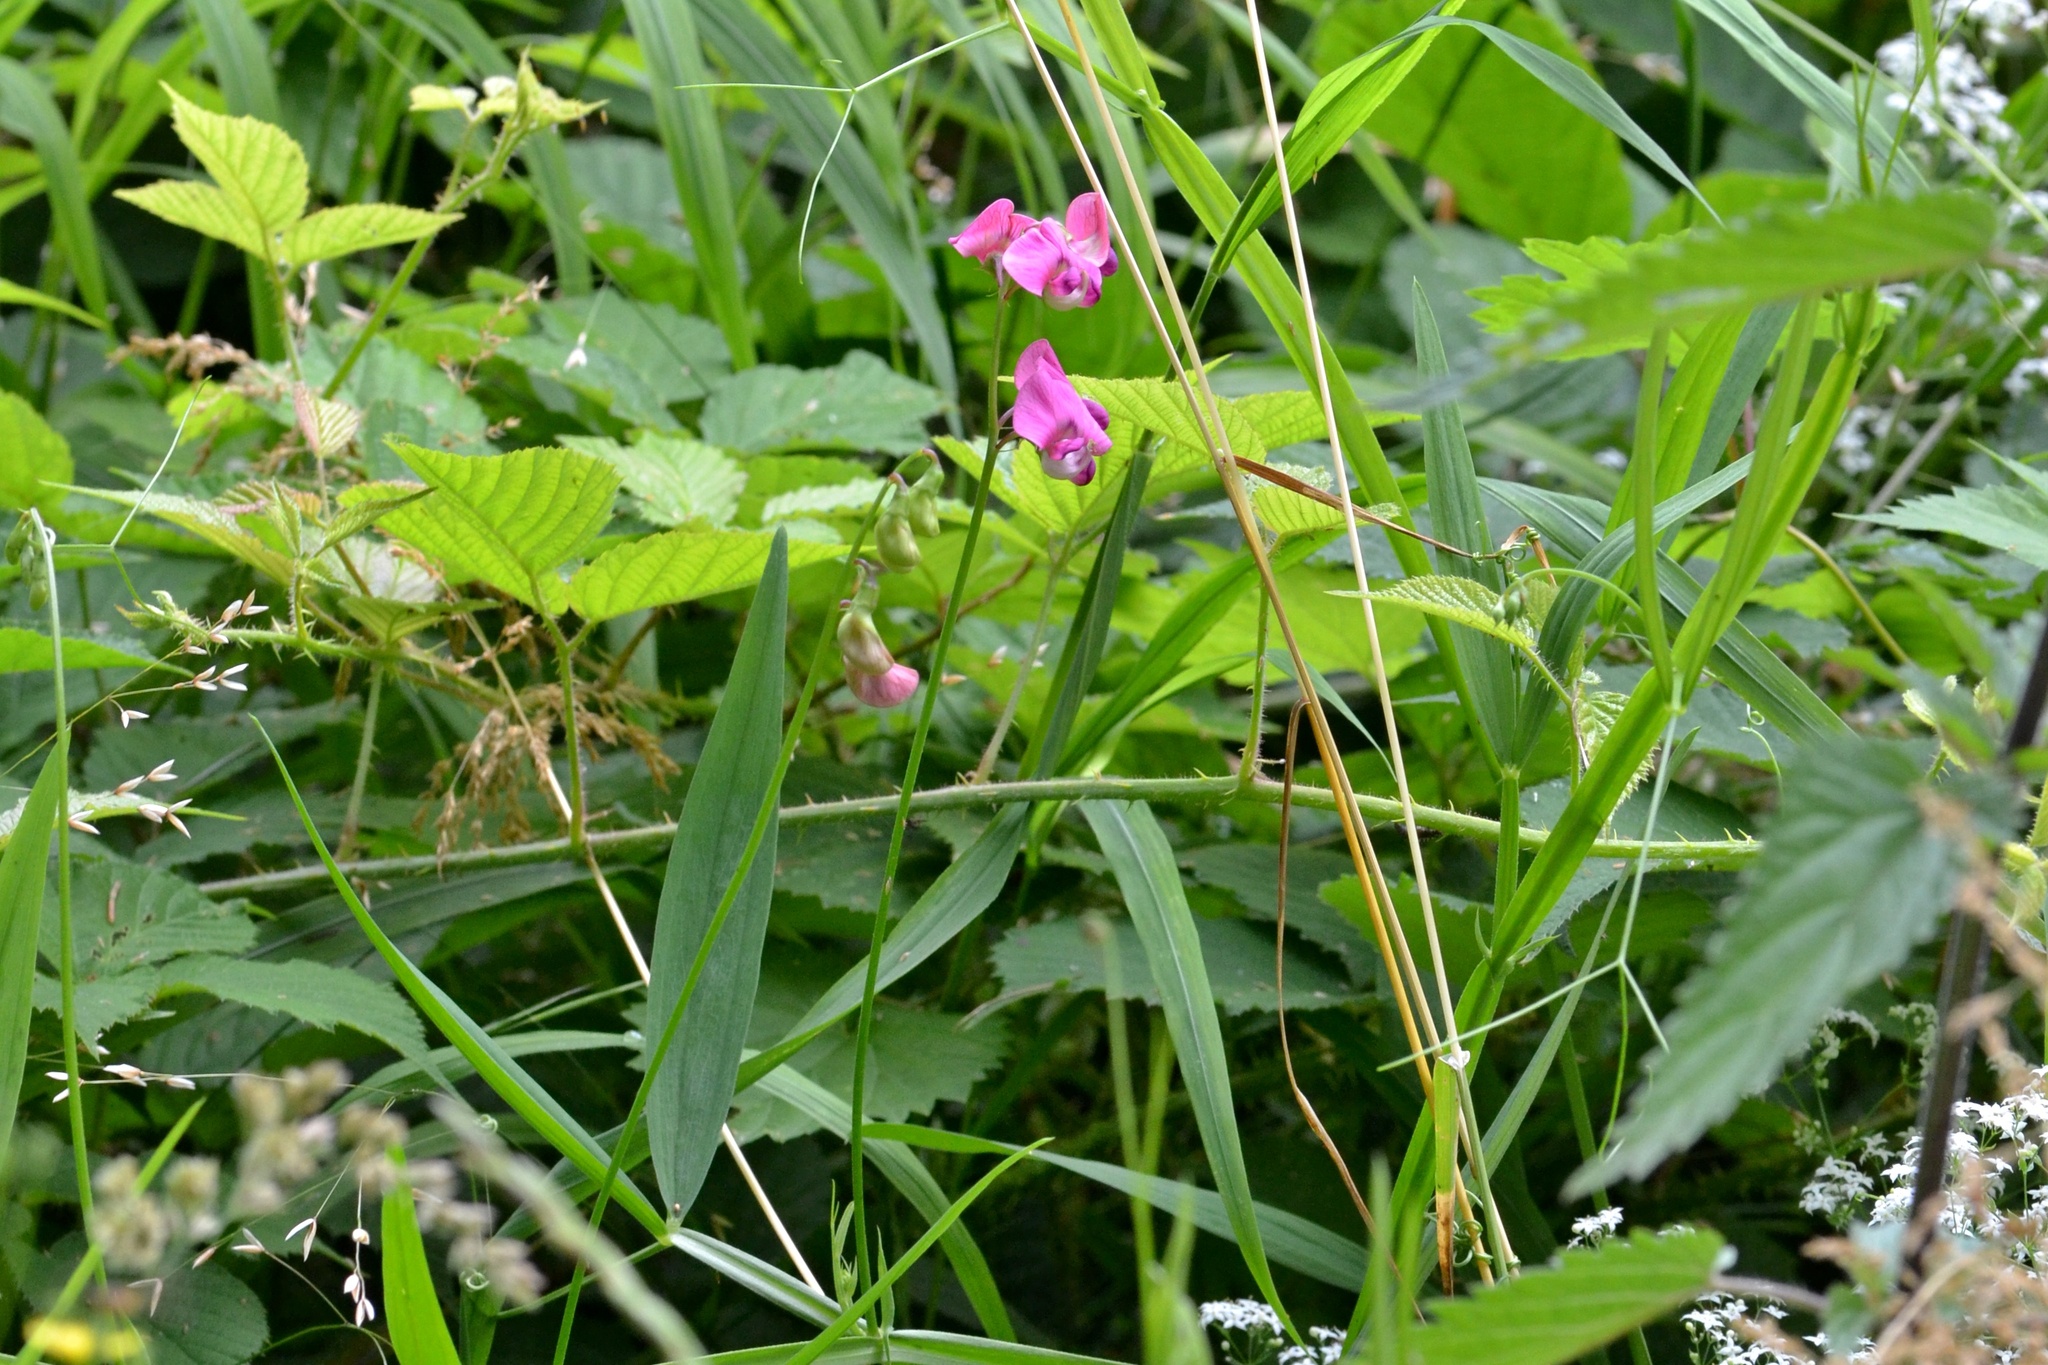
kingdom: Plantae
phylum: Tracheophyta
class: Magnoliopsida
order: Fabales
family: Fabaceae
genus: Lathyrus
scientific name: Lathyrus sylvestris
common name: Flat pea
